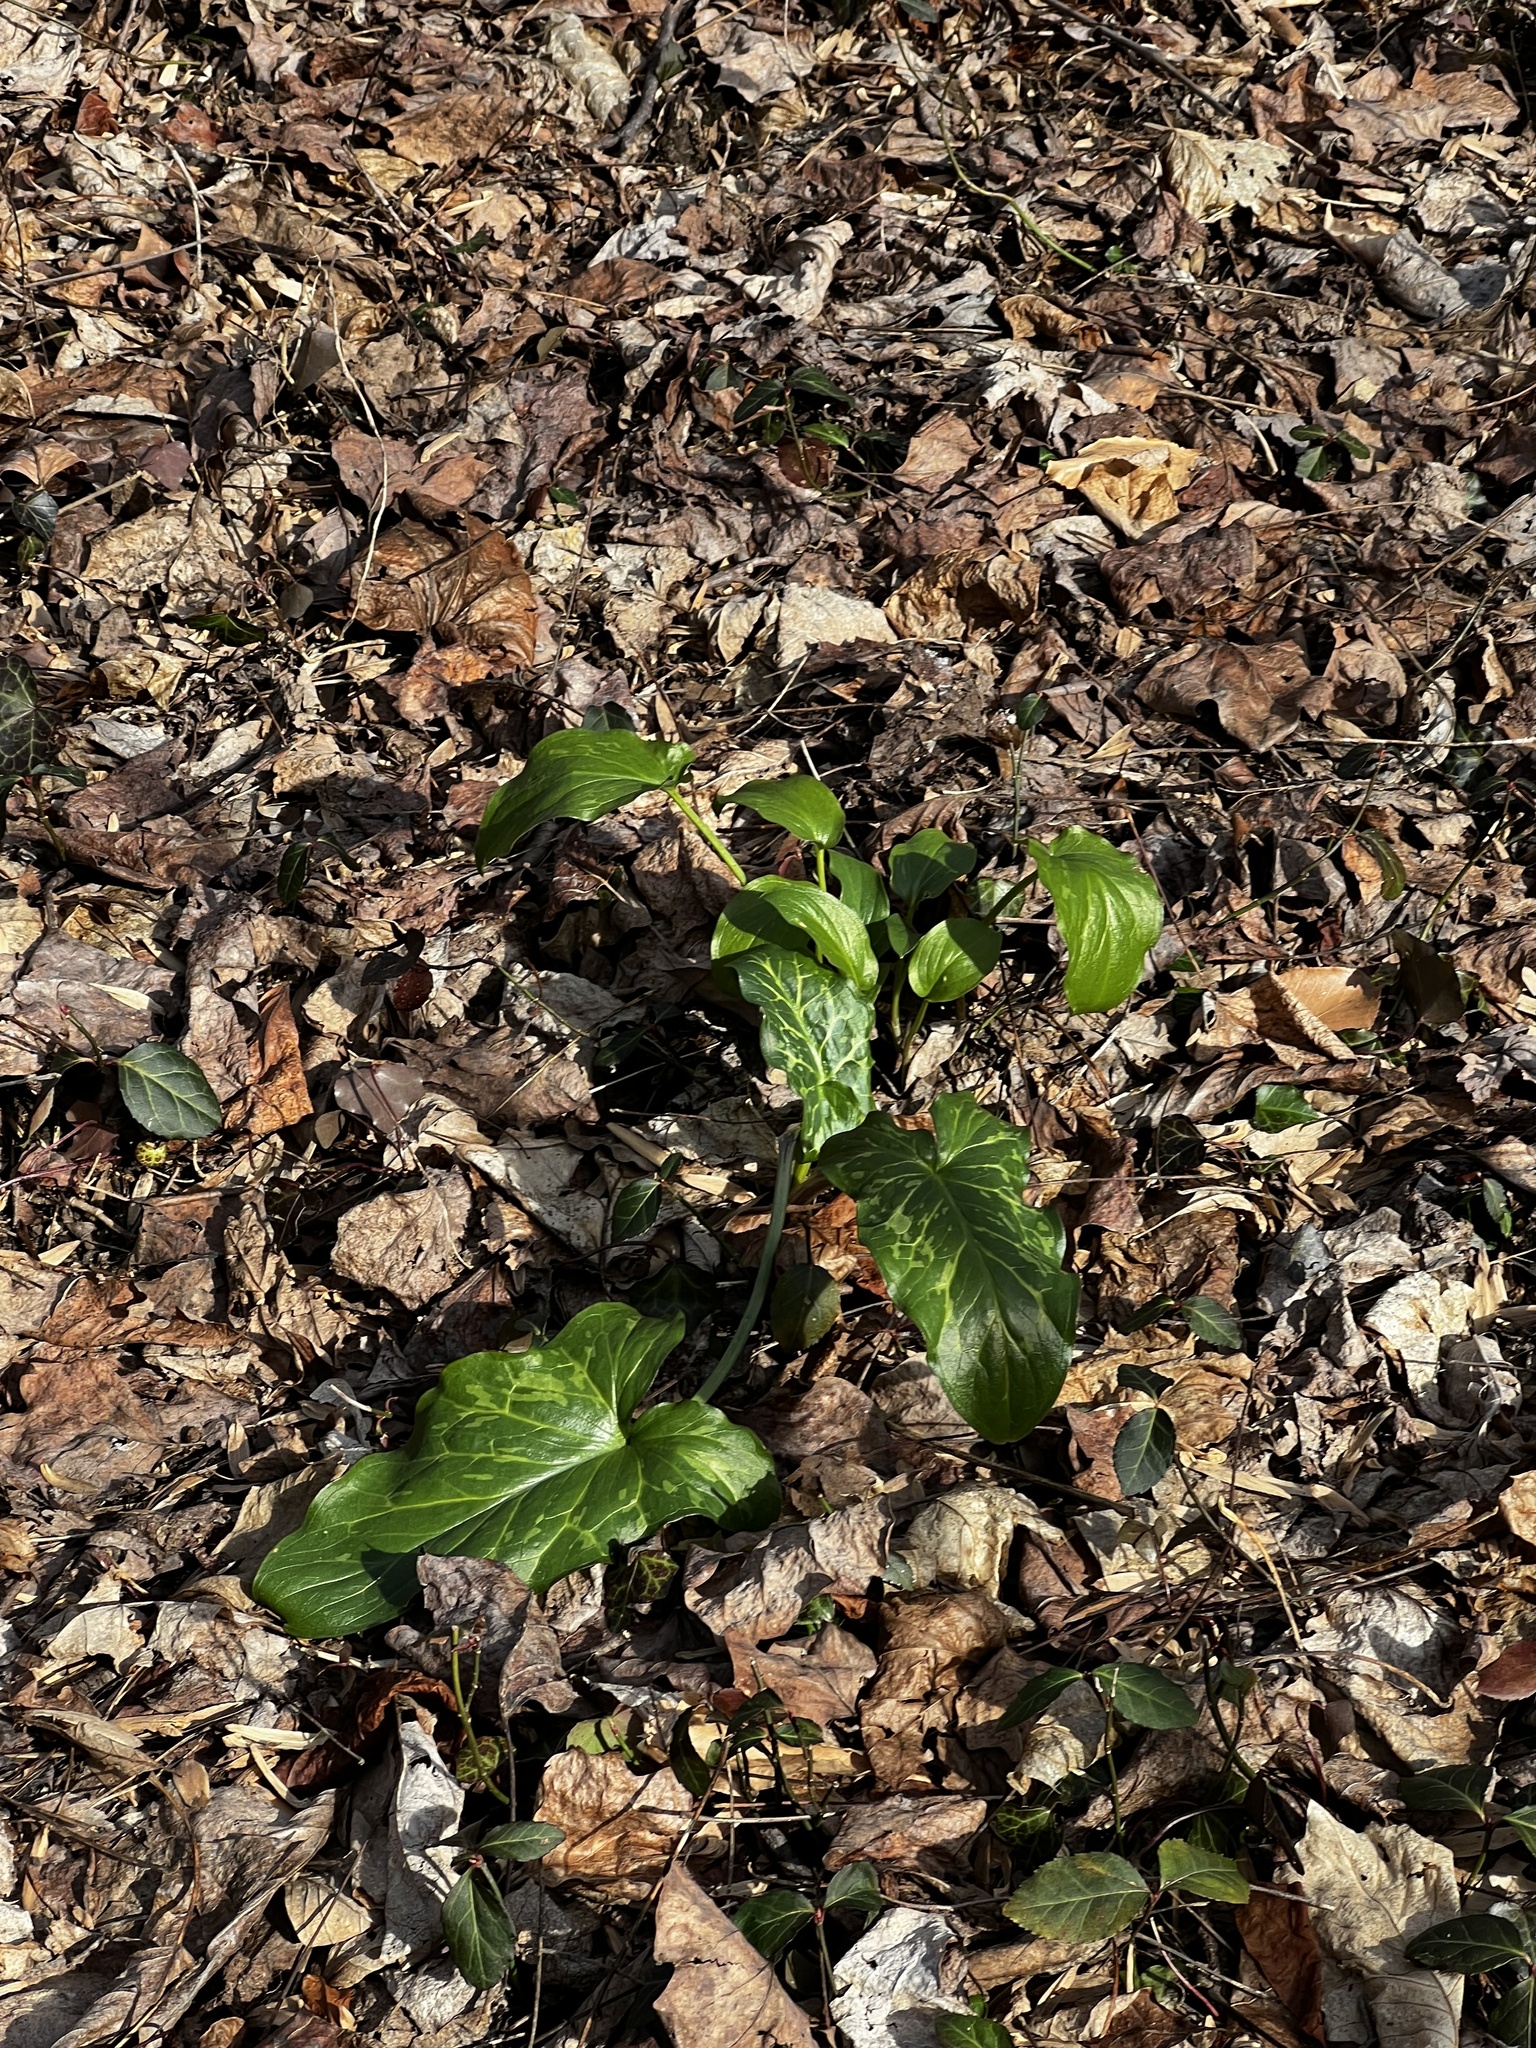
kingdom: Plantae
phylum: Tracheophyta
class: Liliopsida
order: Alismatales
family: Araceae
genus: Arum
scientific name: Arum italicum
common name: Italian lords-and-ladies
